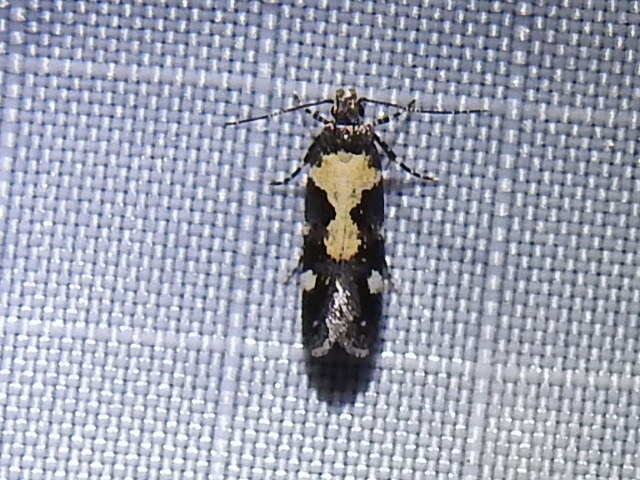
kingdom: Animalia
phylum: Arthropoda
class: Insecta
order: Lepidoptera
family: Gelechiidae
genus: Stegasta
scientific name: Stegasta bosqueella
